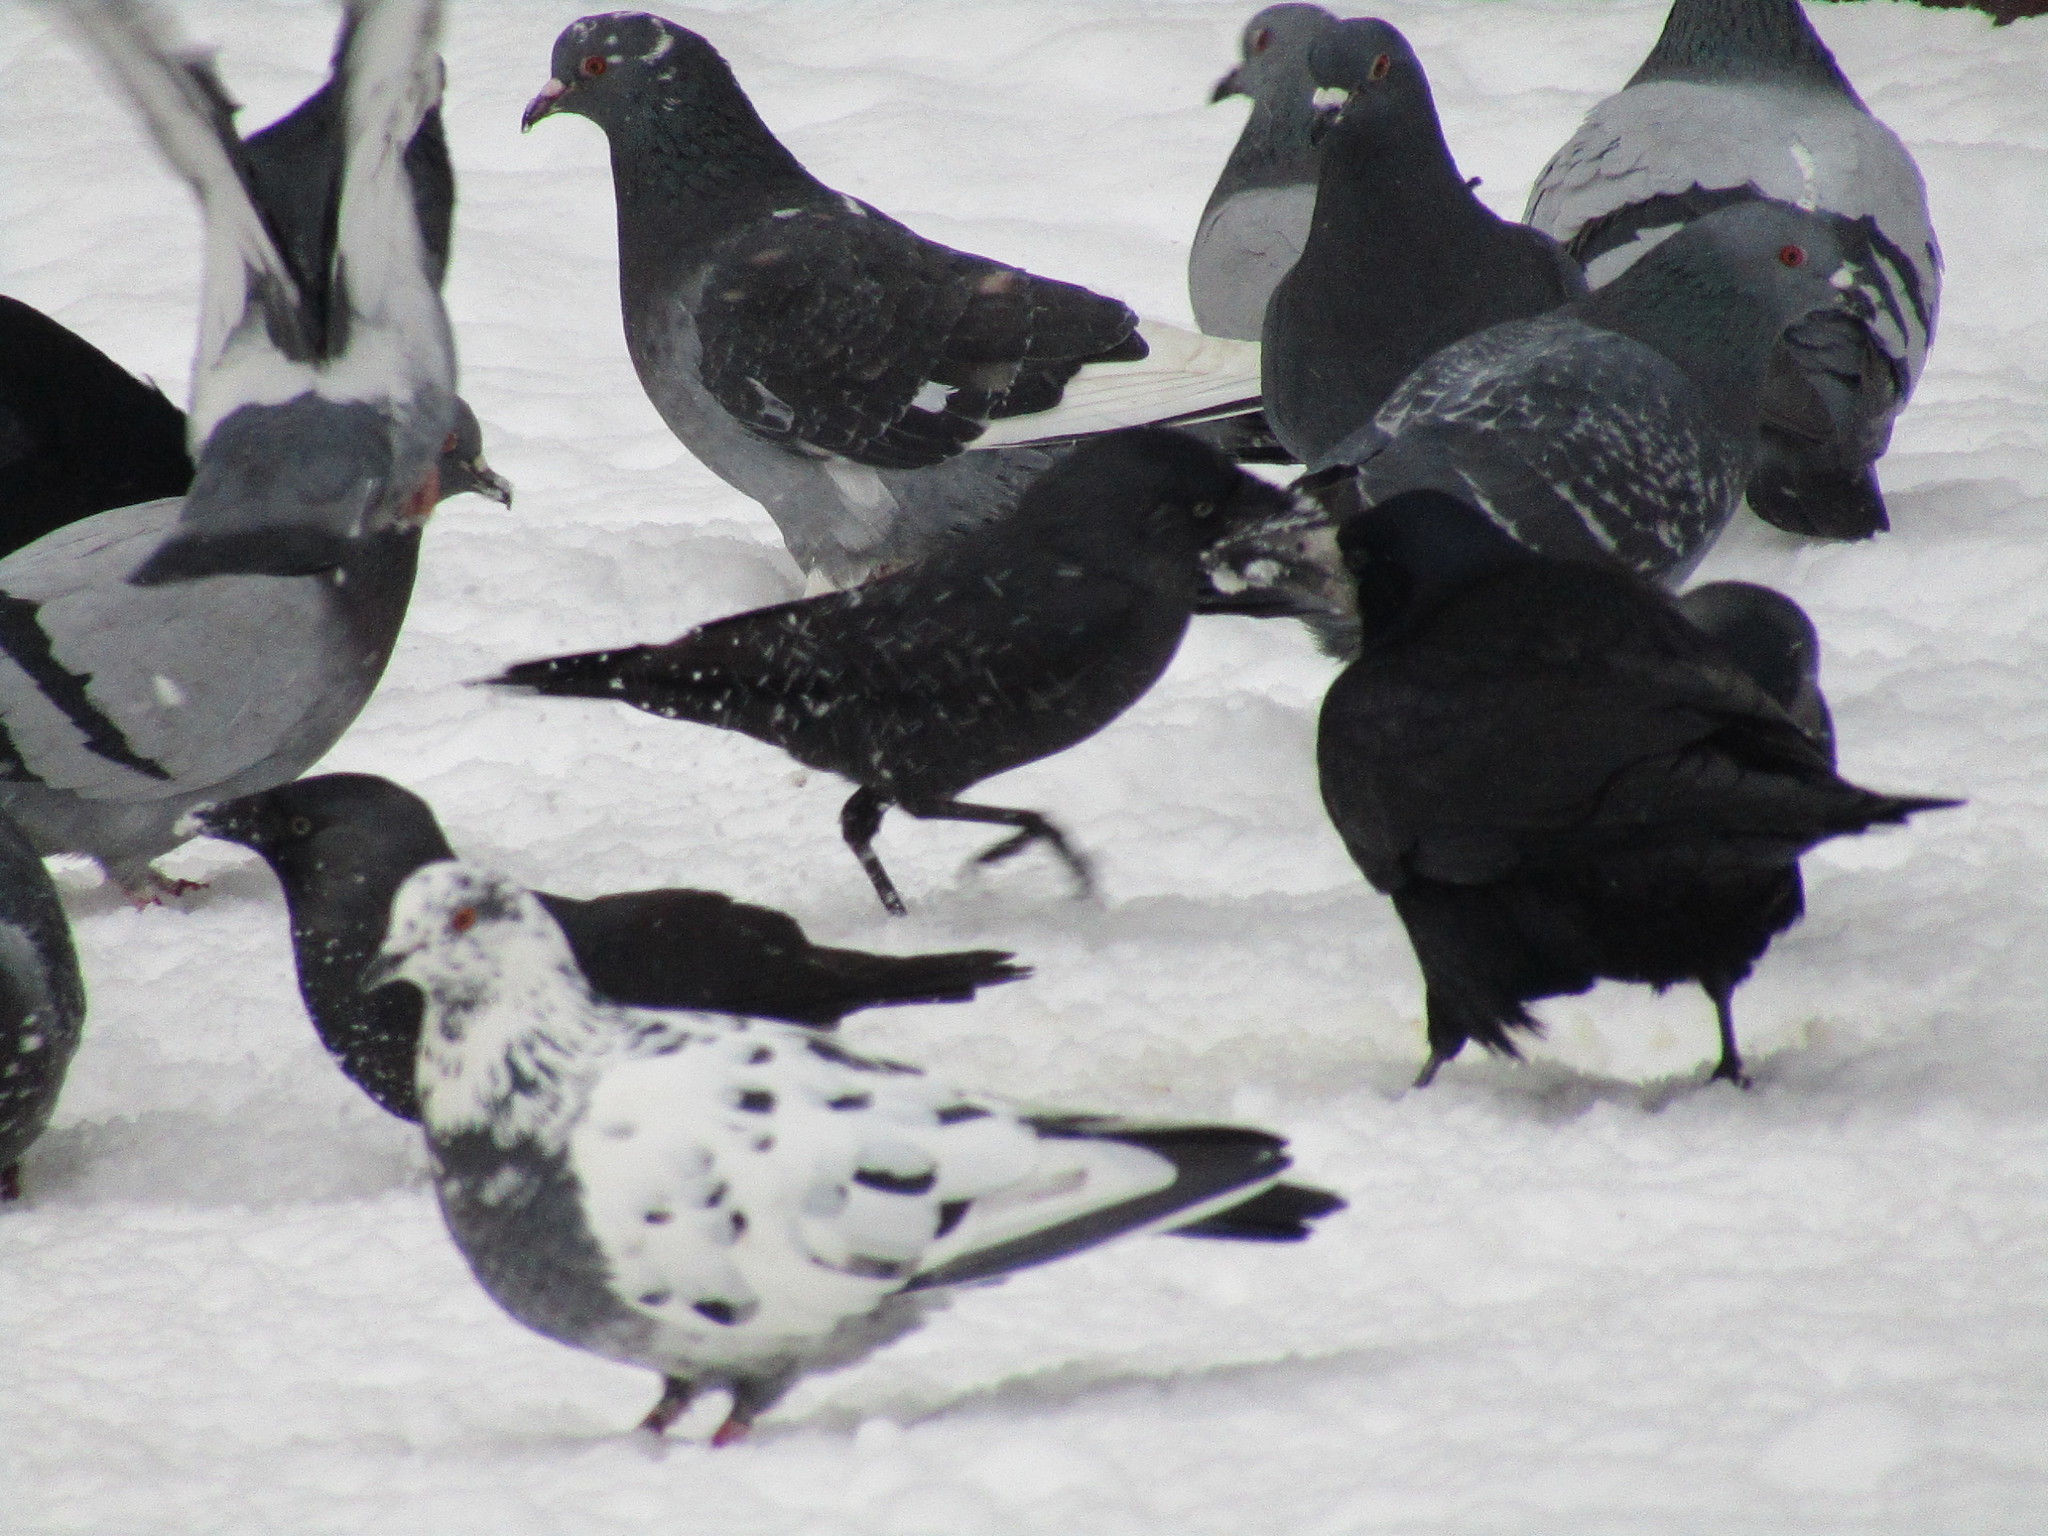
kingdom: Animalia
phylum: Chordata
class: Aves
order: Passeriformes
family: Corvidae
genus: Coloeus
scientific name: Coloeus monedula
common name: Western jackdaw
